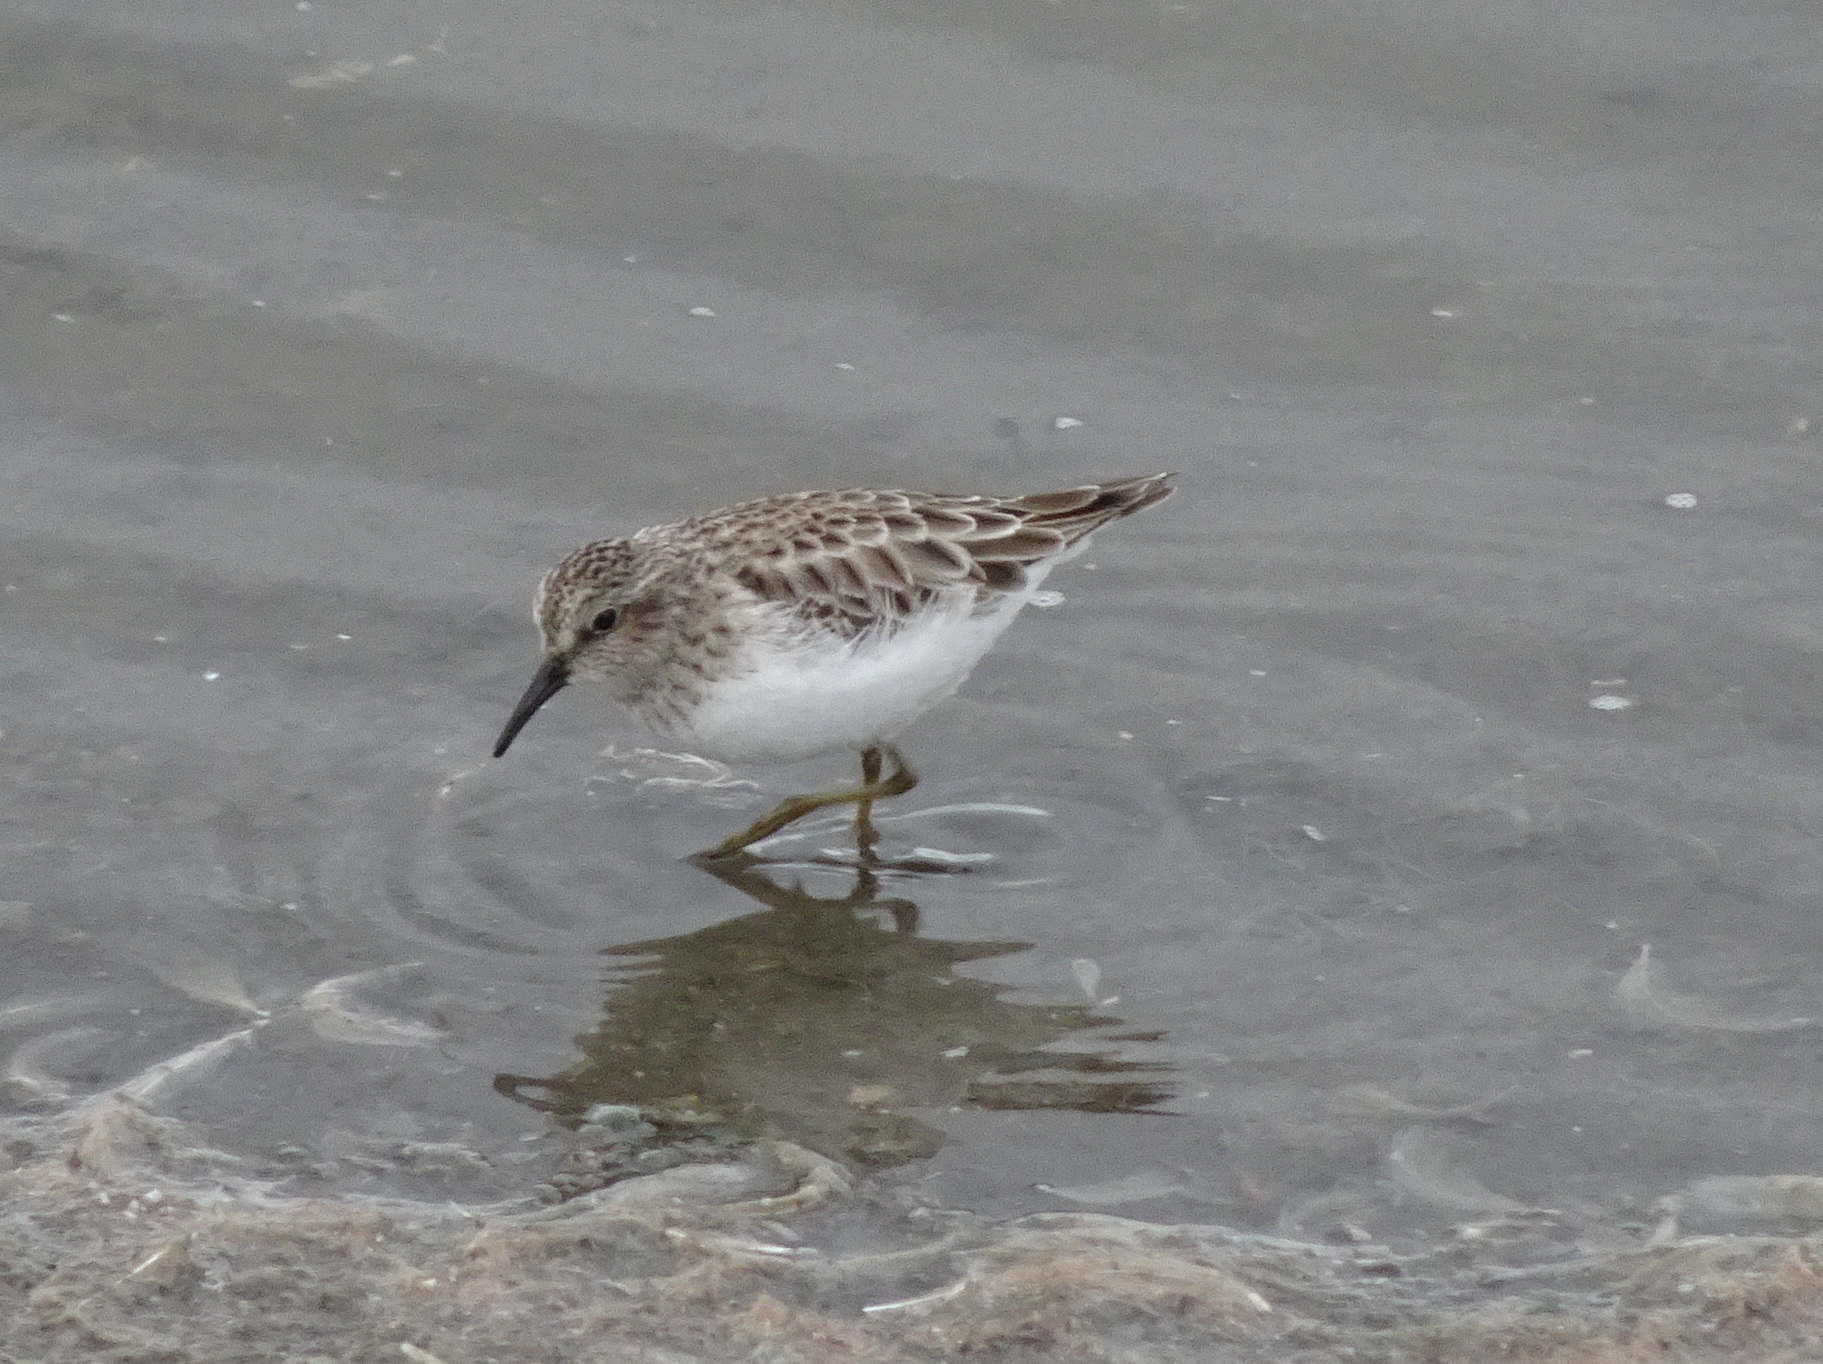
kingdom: Animalia
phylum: Chordata
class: Aves
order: Charadriiformes
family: Scolopacidae
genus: Calidris
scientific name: Calidris minutilla
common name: Least sandpiper
